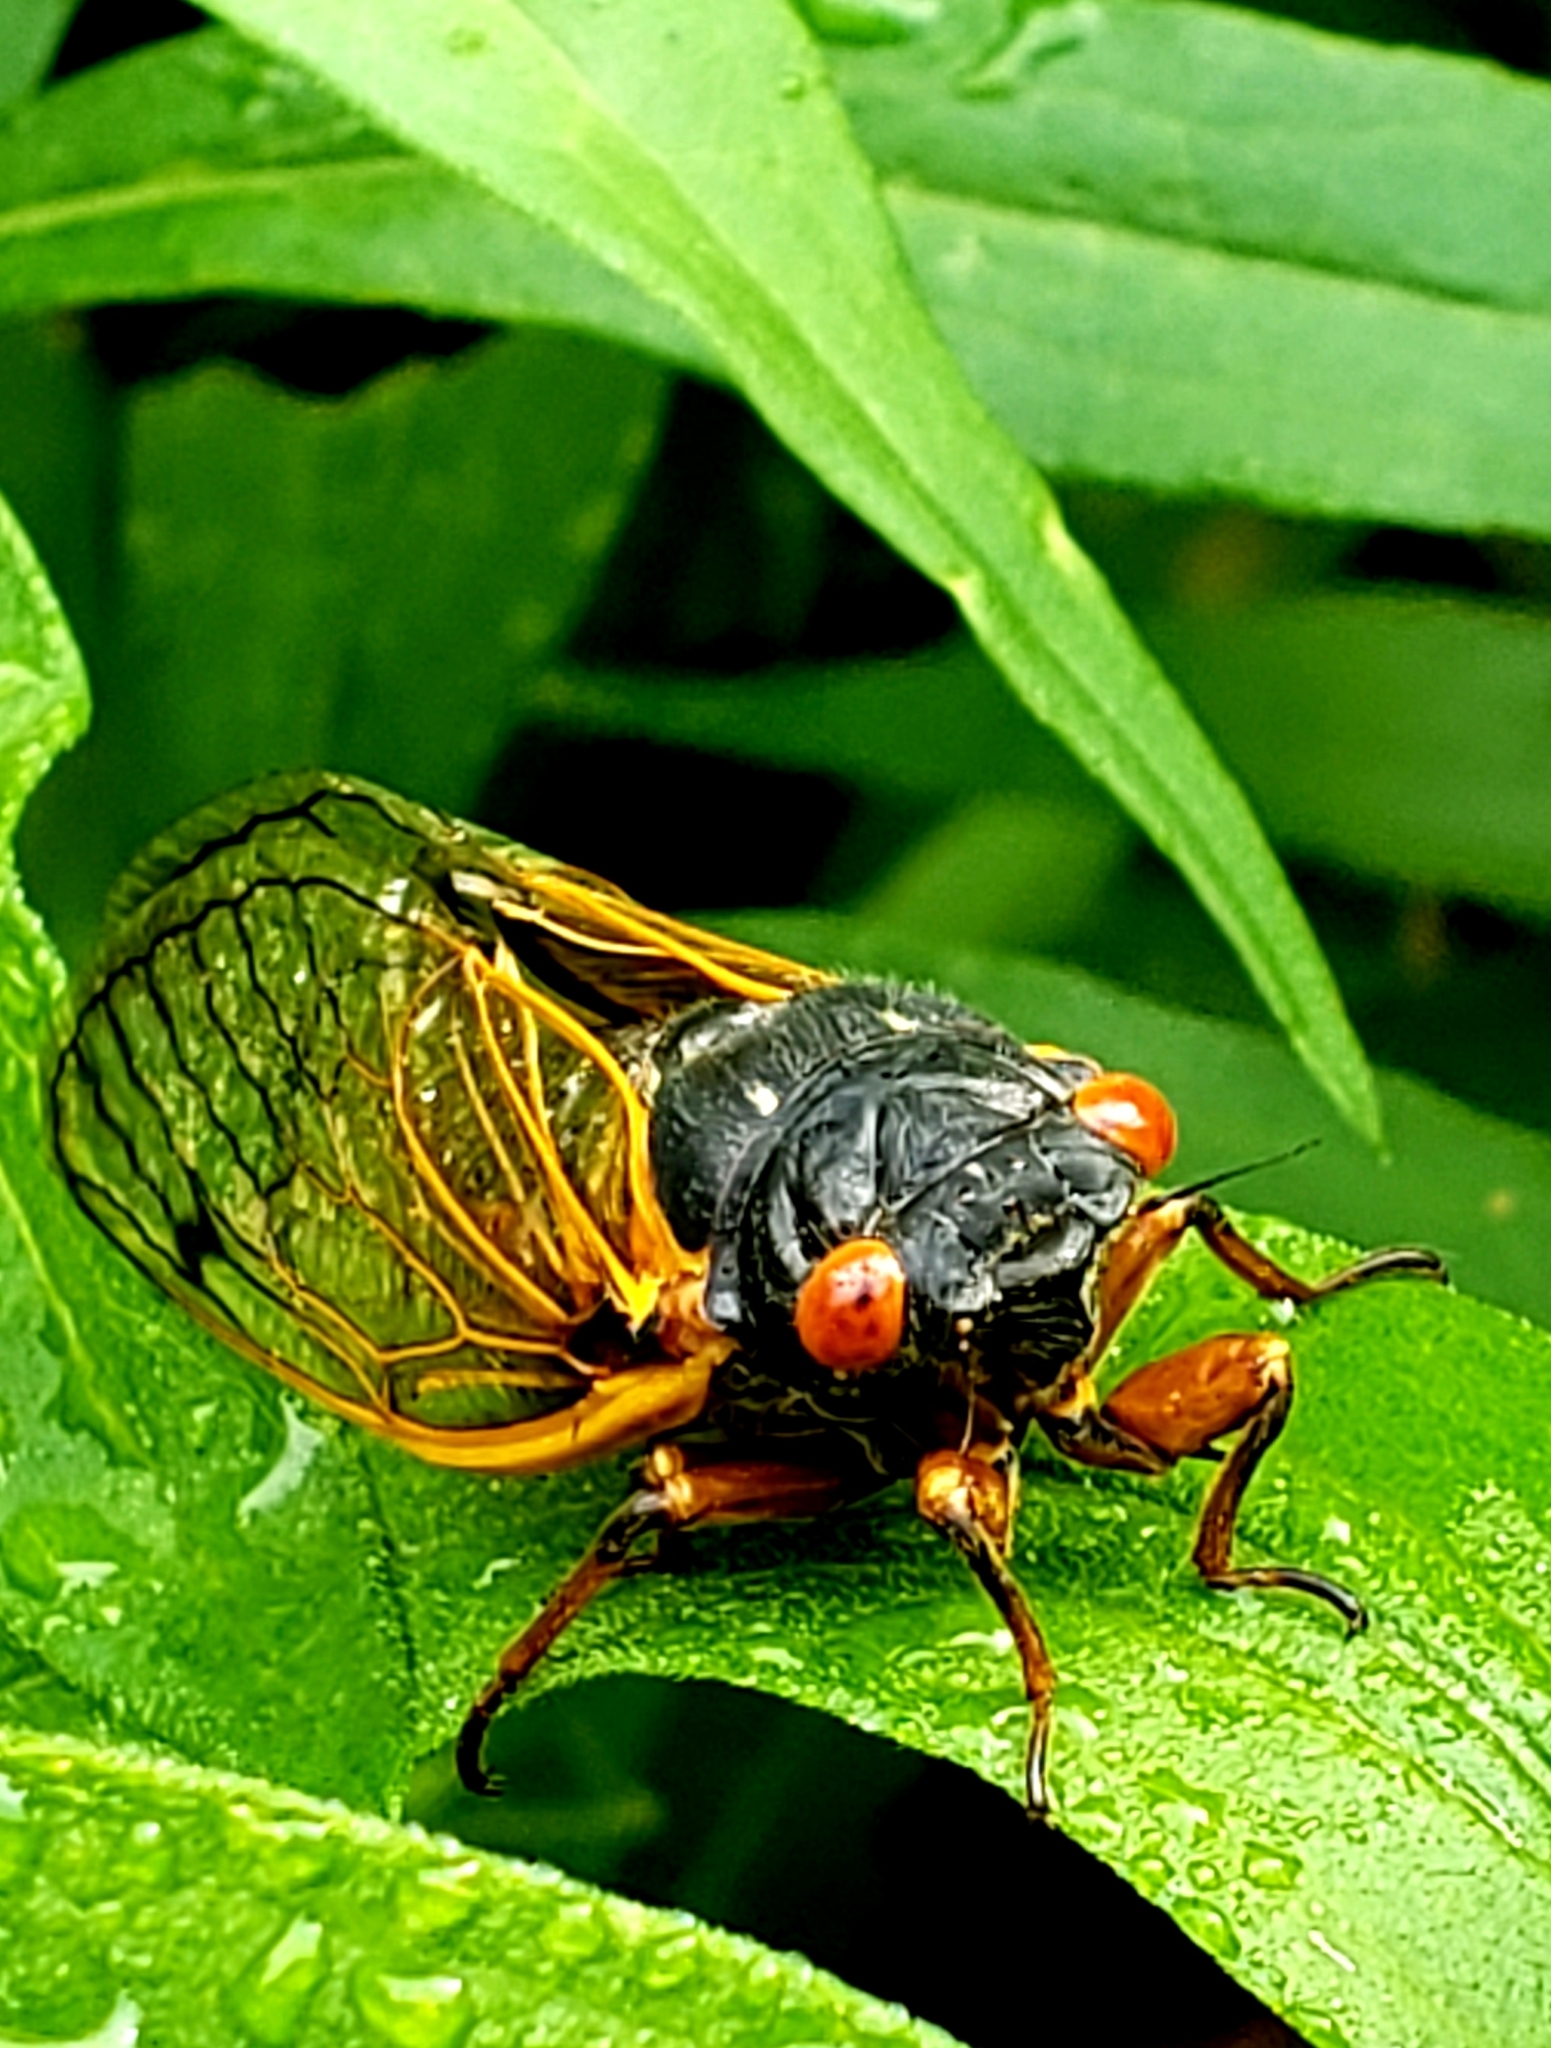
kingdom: Animalia
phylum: Arthropoda
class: Insecta
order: Hemiptera
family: Cicadidae
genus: Magicicada
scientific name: Magicicada
